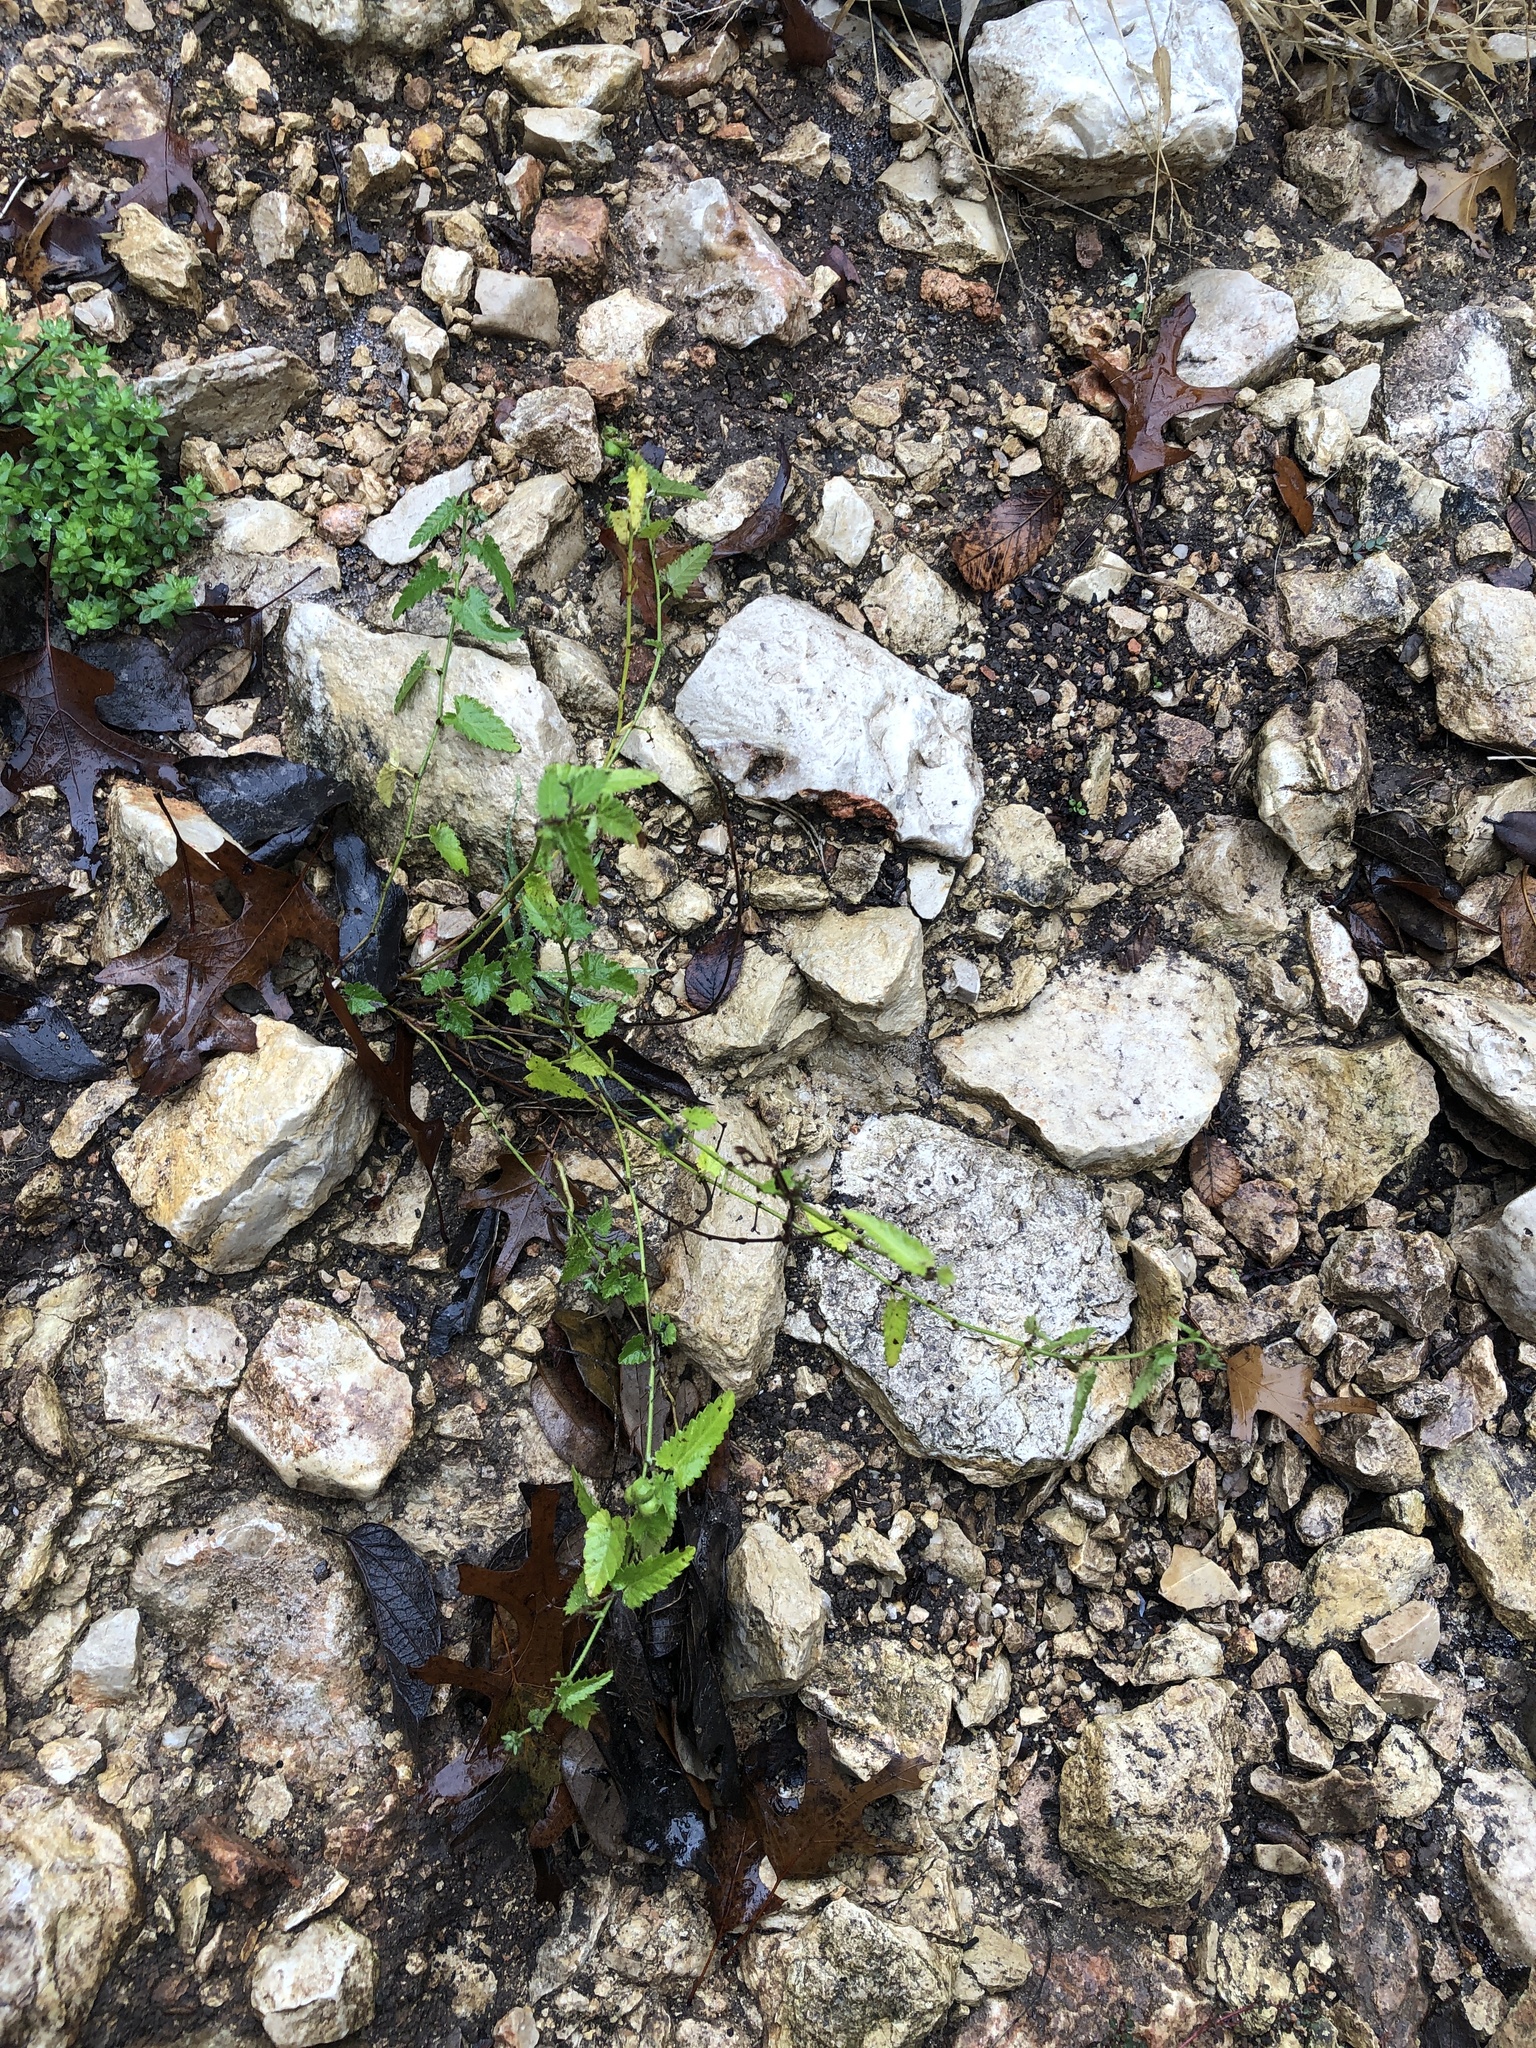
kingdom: Plantae
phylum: Tracheophyta
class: Magnoliopsida
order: Malpighiales
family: Euphorbiaceae
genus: Tragia
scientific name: Tragia urticifolia
